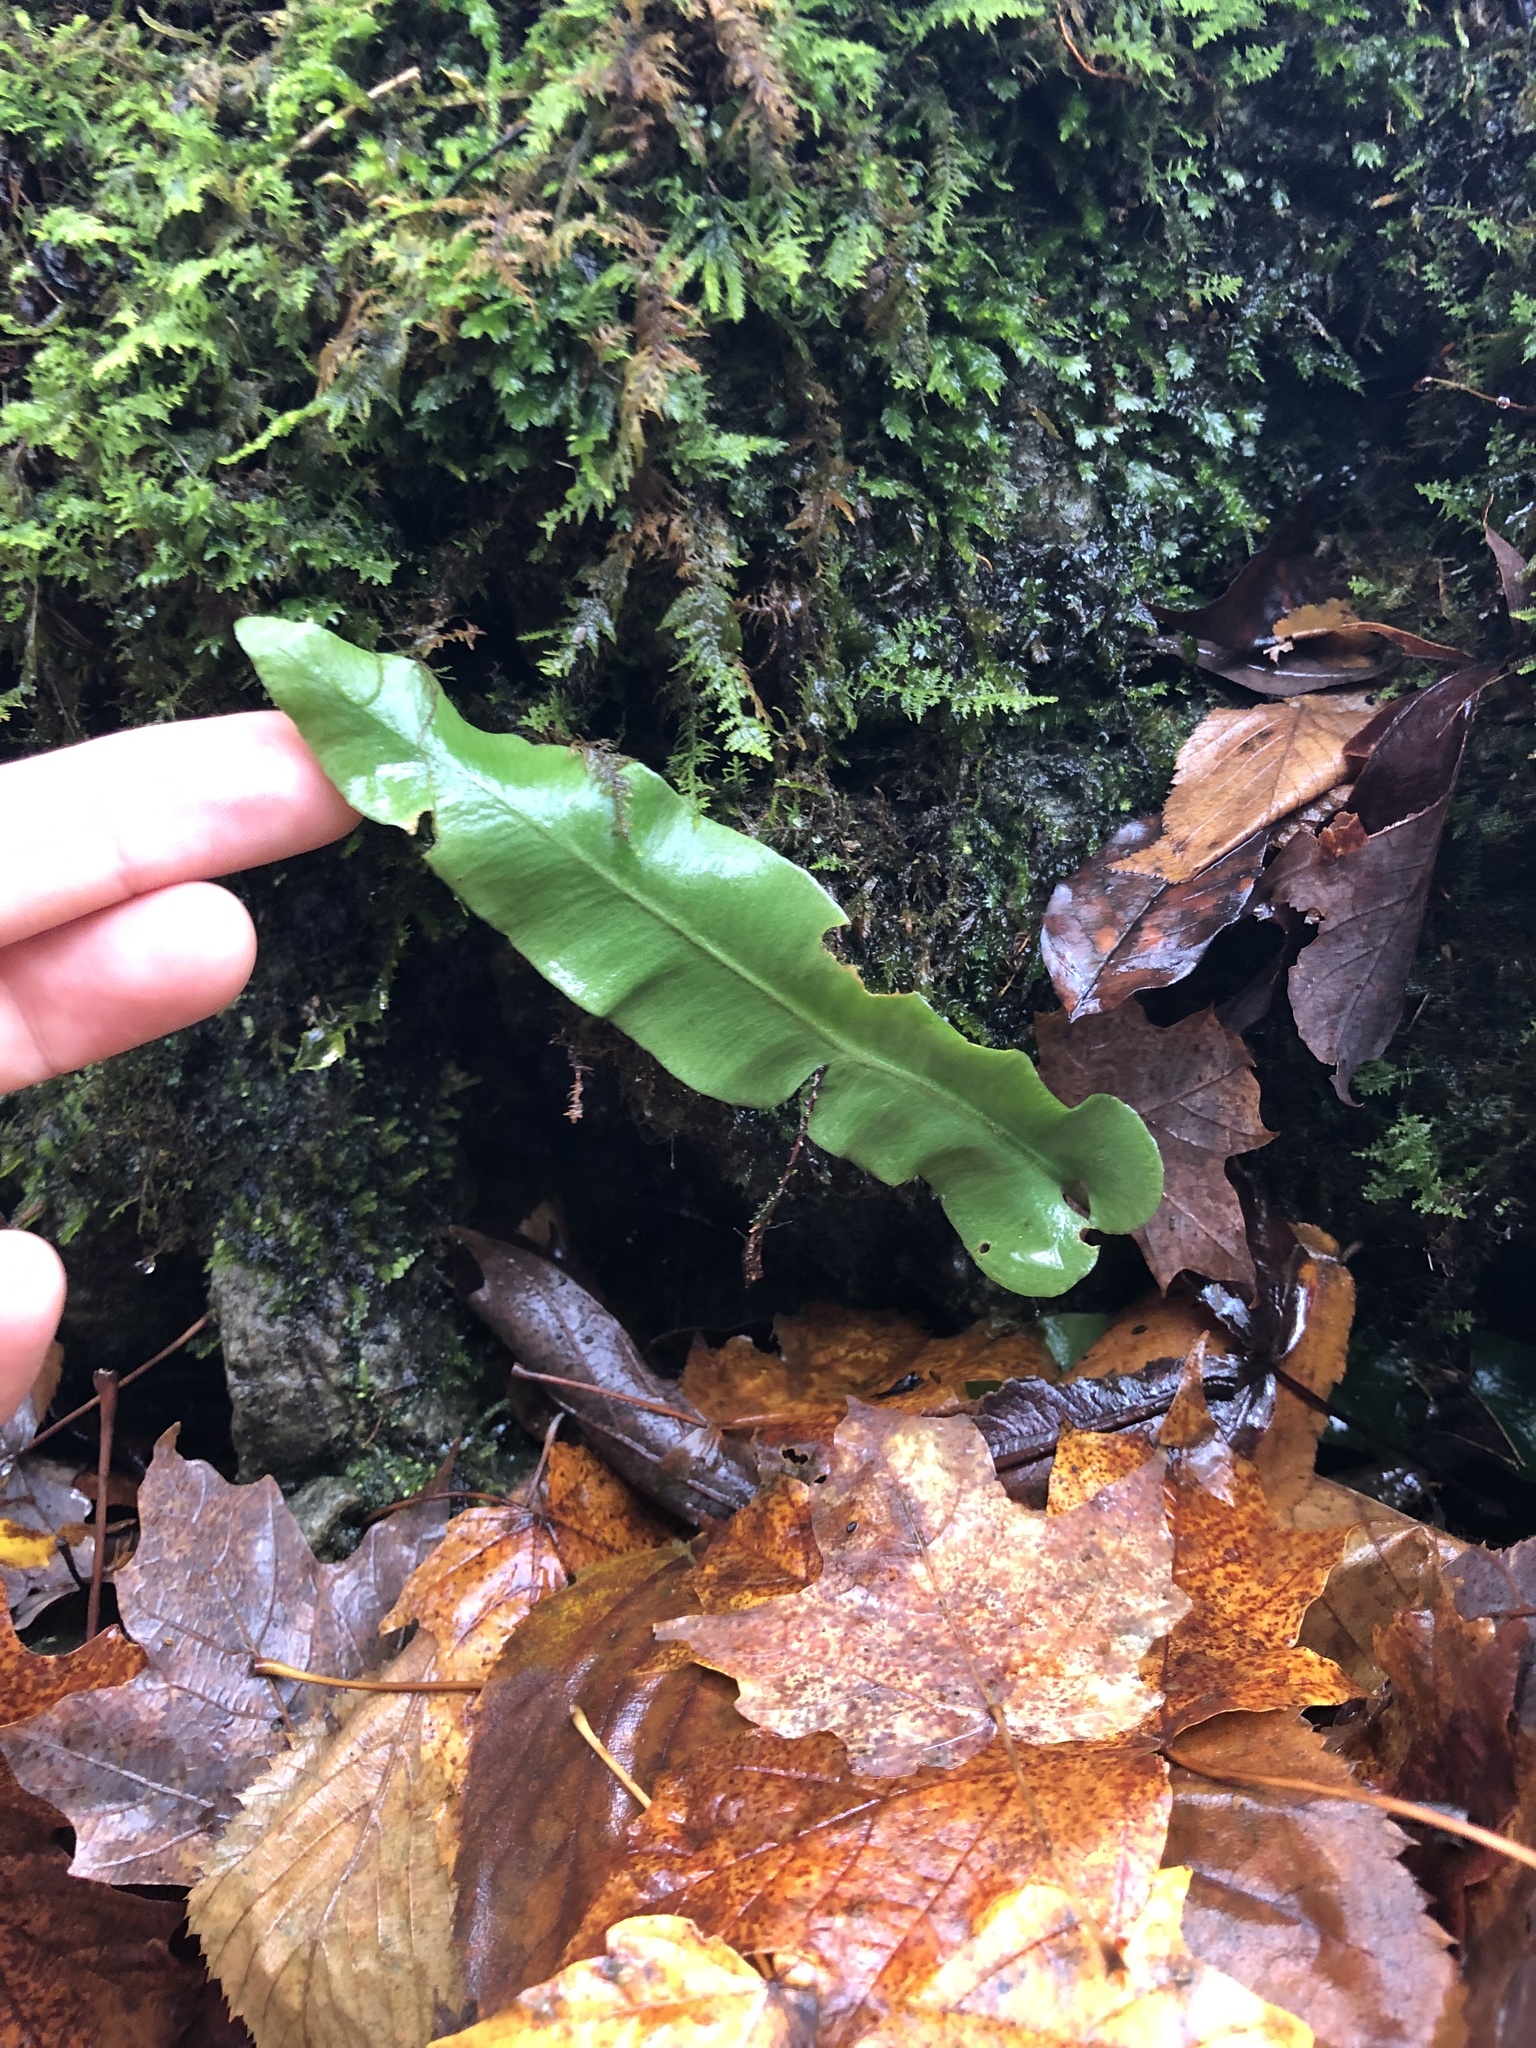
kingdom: Plantae
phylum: Tracheophyta
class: Polypodiopsida
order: Polypodiales
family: Aspleniaceae
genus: Asplenium
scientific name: Asplenium scolopendrium
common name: Hart's-tongue fern
